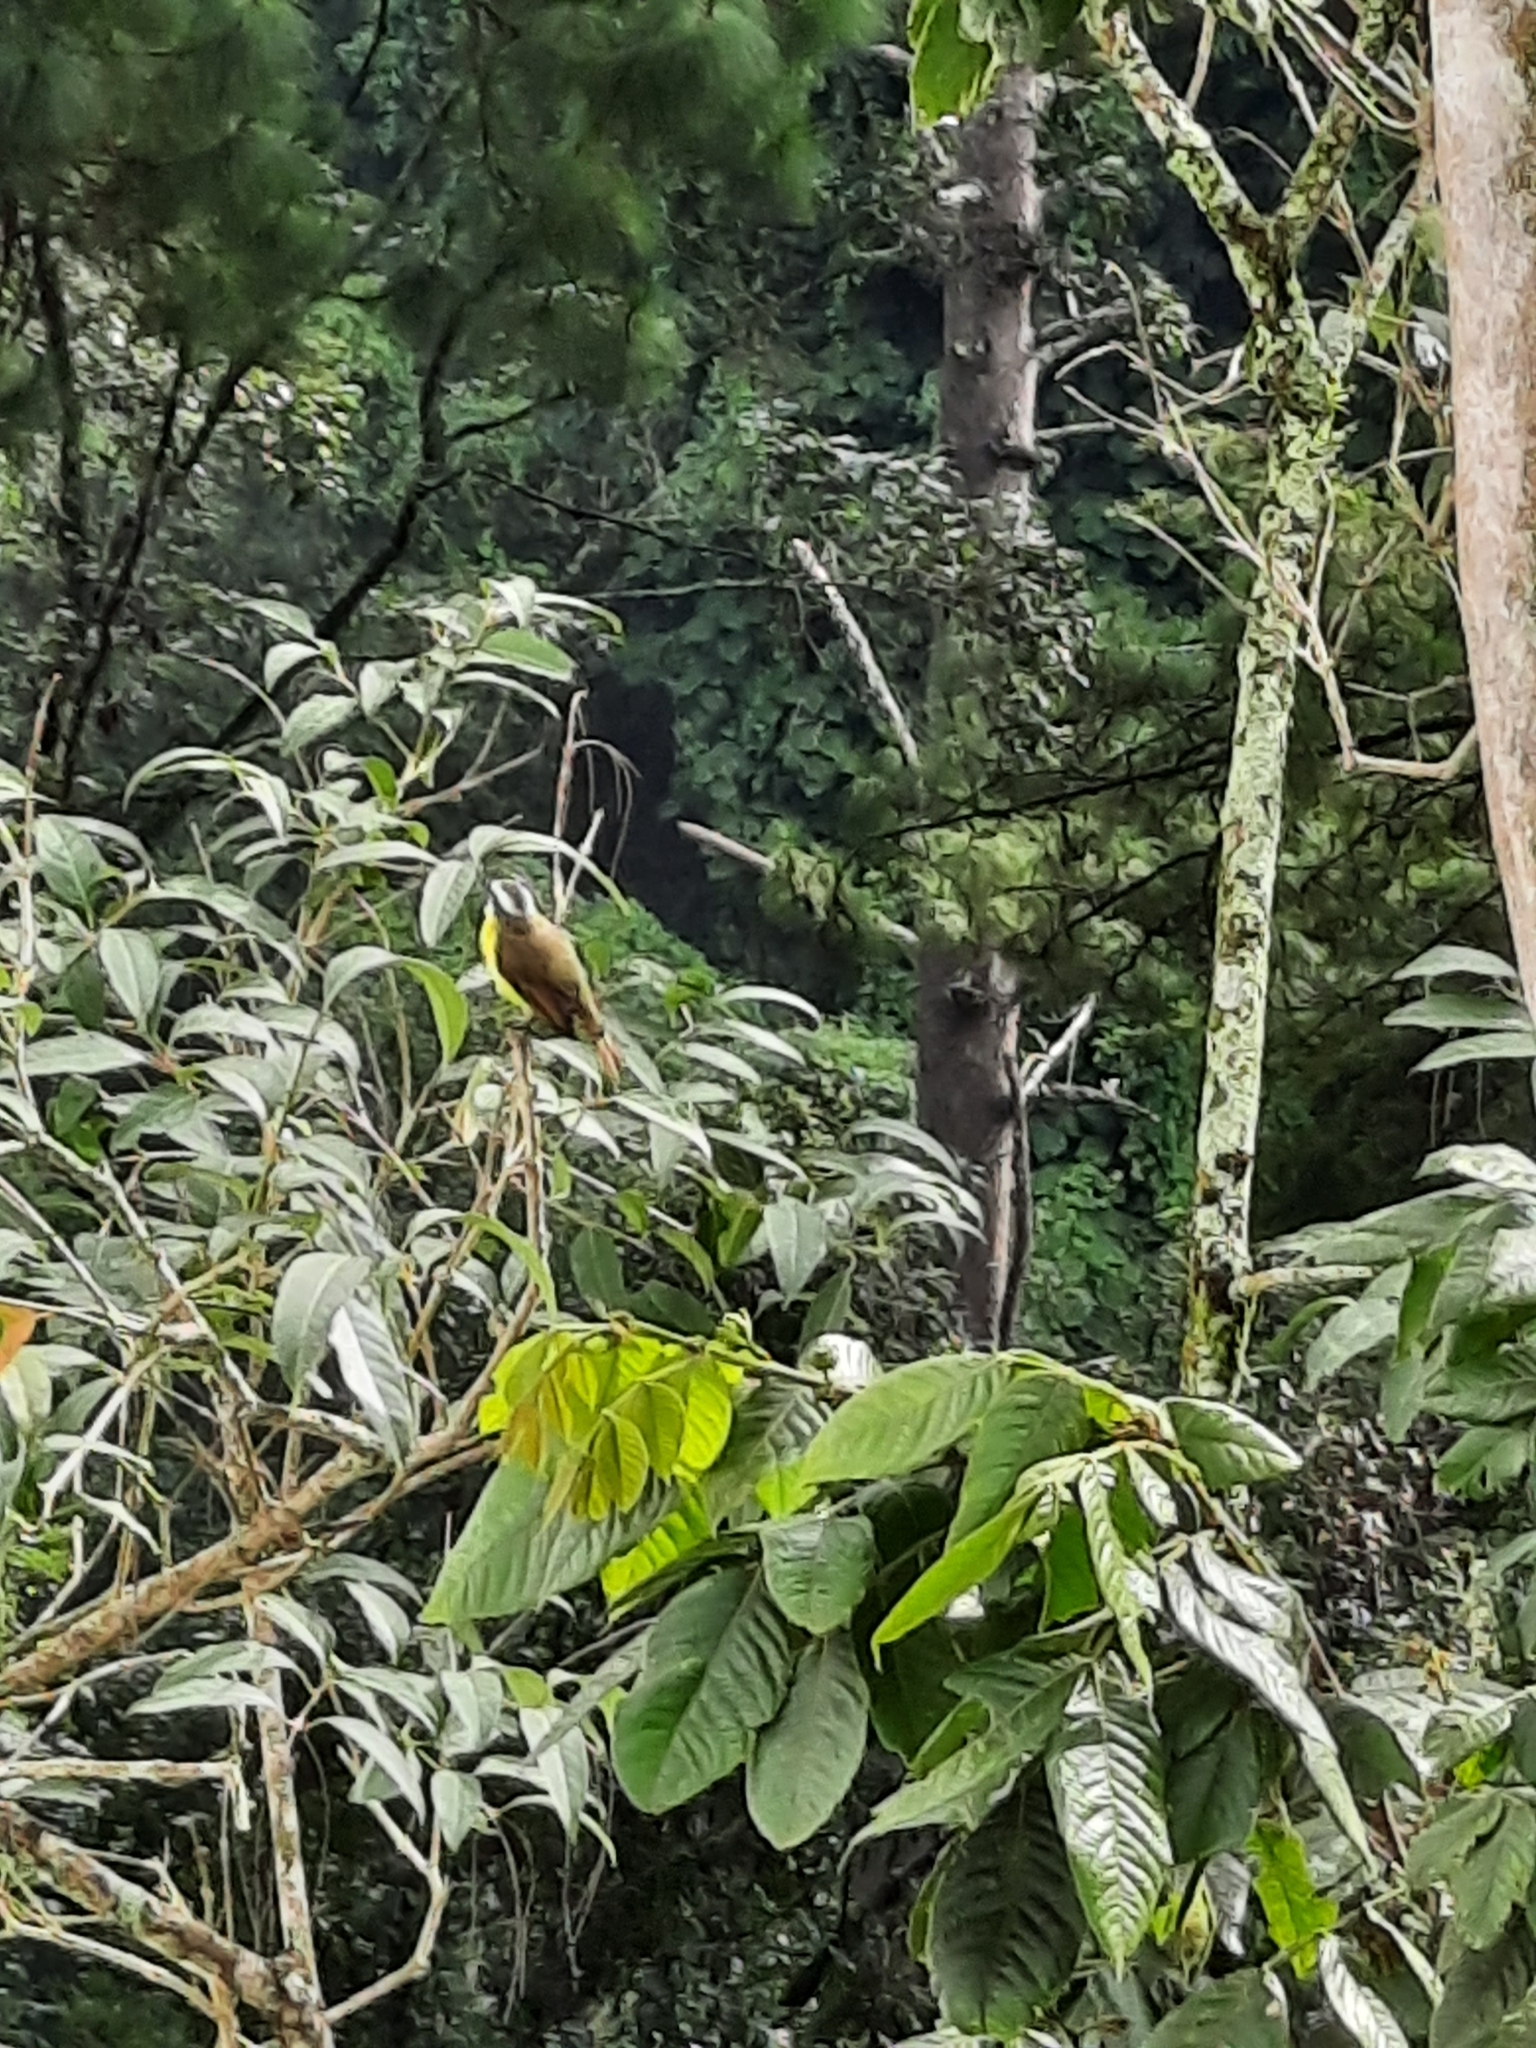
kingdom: Animalia
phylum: Chordata
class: Aves
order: Passeriformes
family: Tyrannidae
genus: Myiozetetes
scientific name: Myiozetetes similis
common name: Social flycatcher
